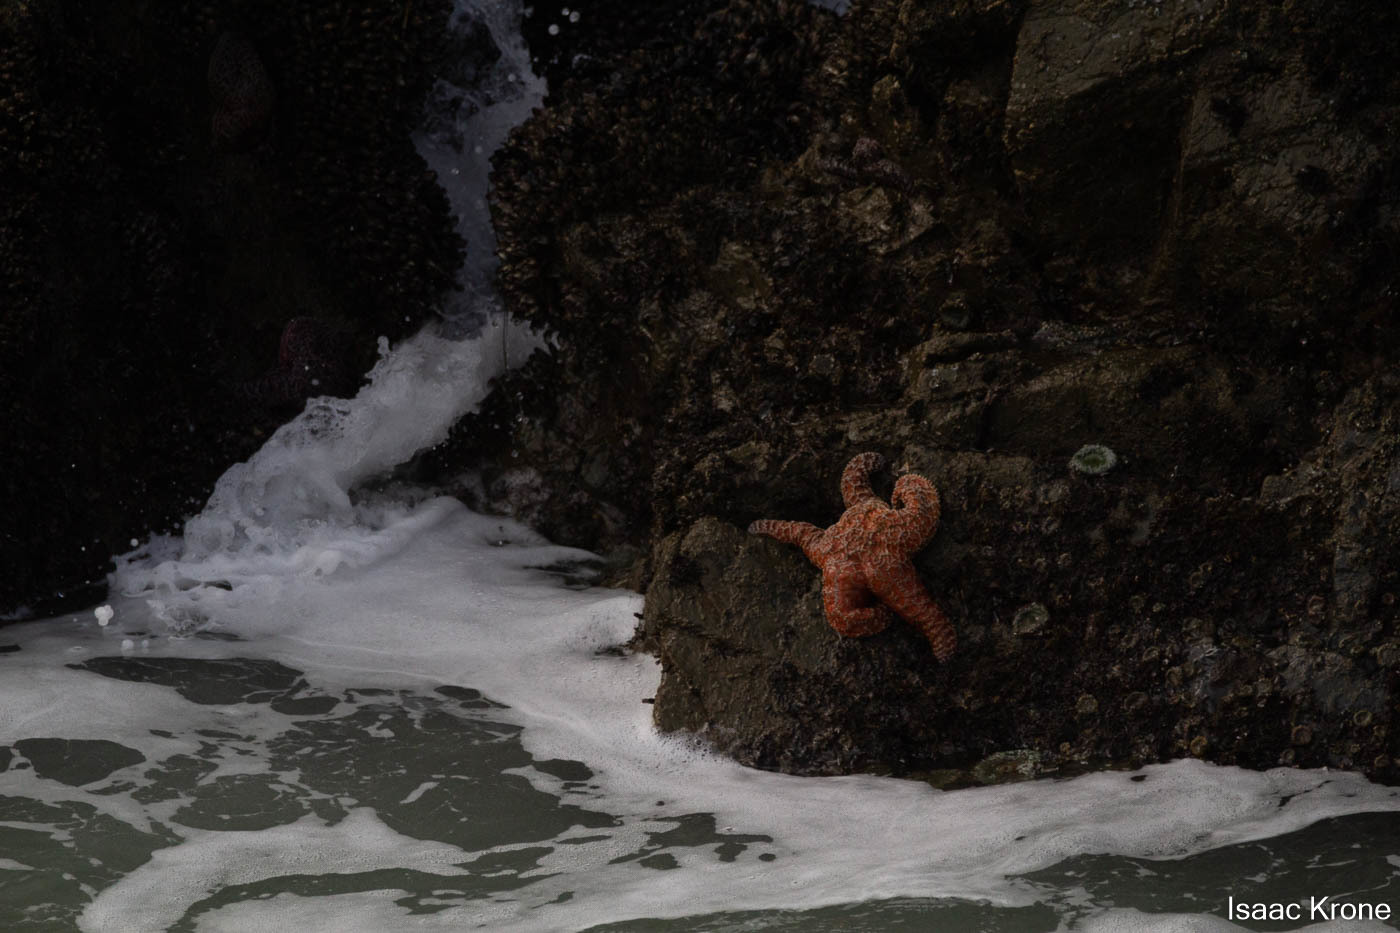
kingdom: Animalia
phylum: Echinodermata
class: Asteroidea
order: Forcipulatida
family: Asteriidae
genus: Pisaster
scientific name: Pisaster ochraceus
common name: Ochre stars
